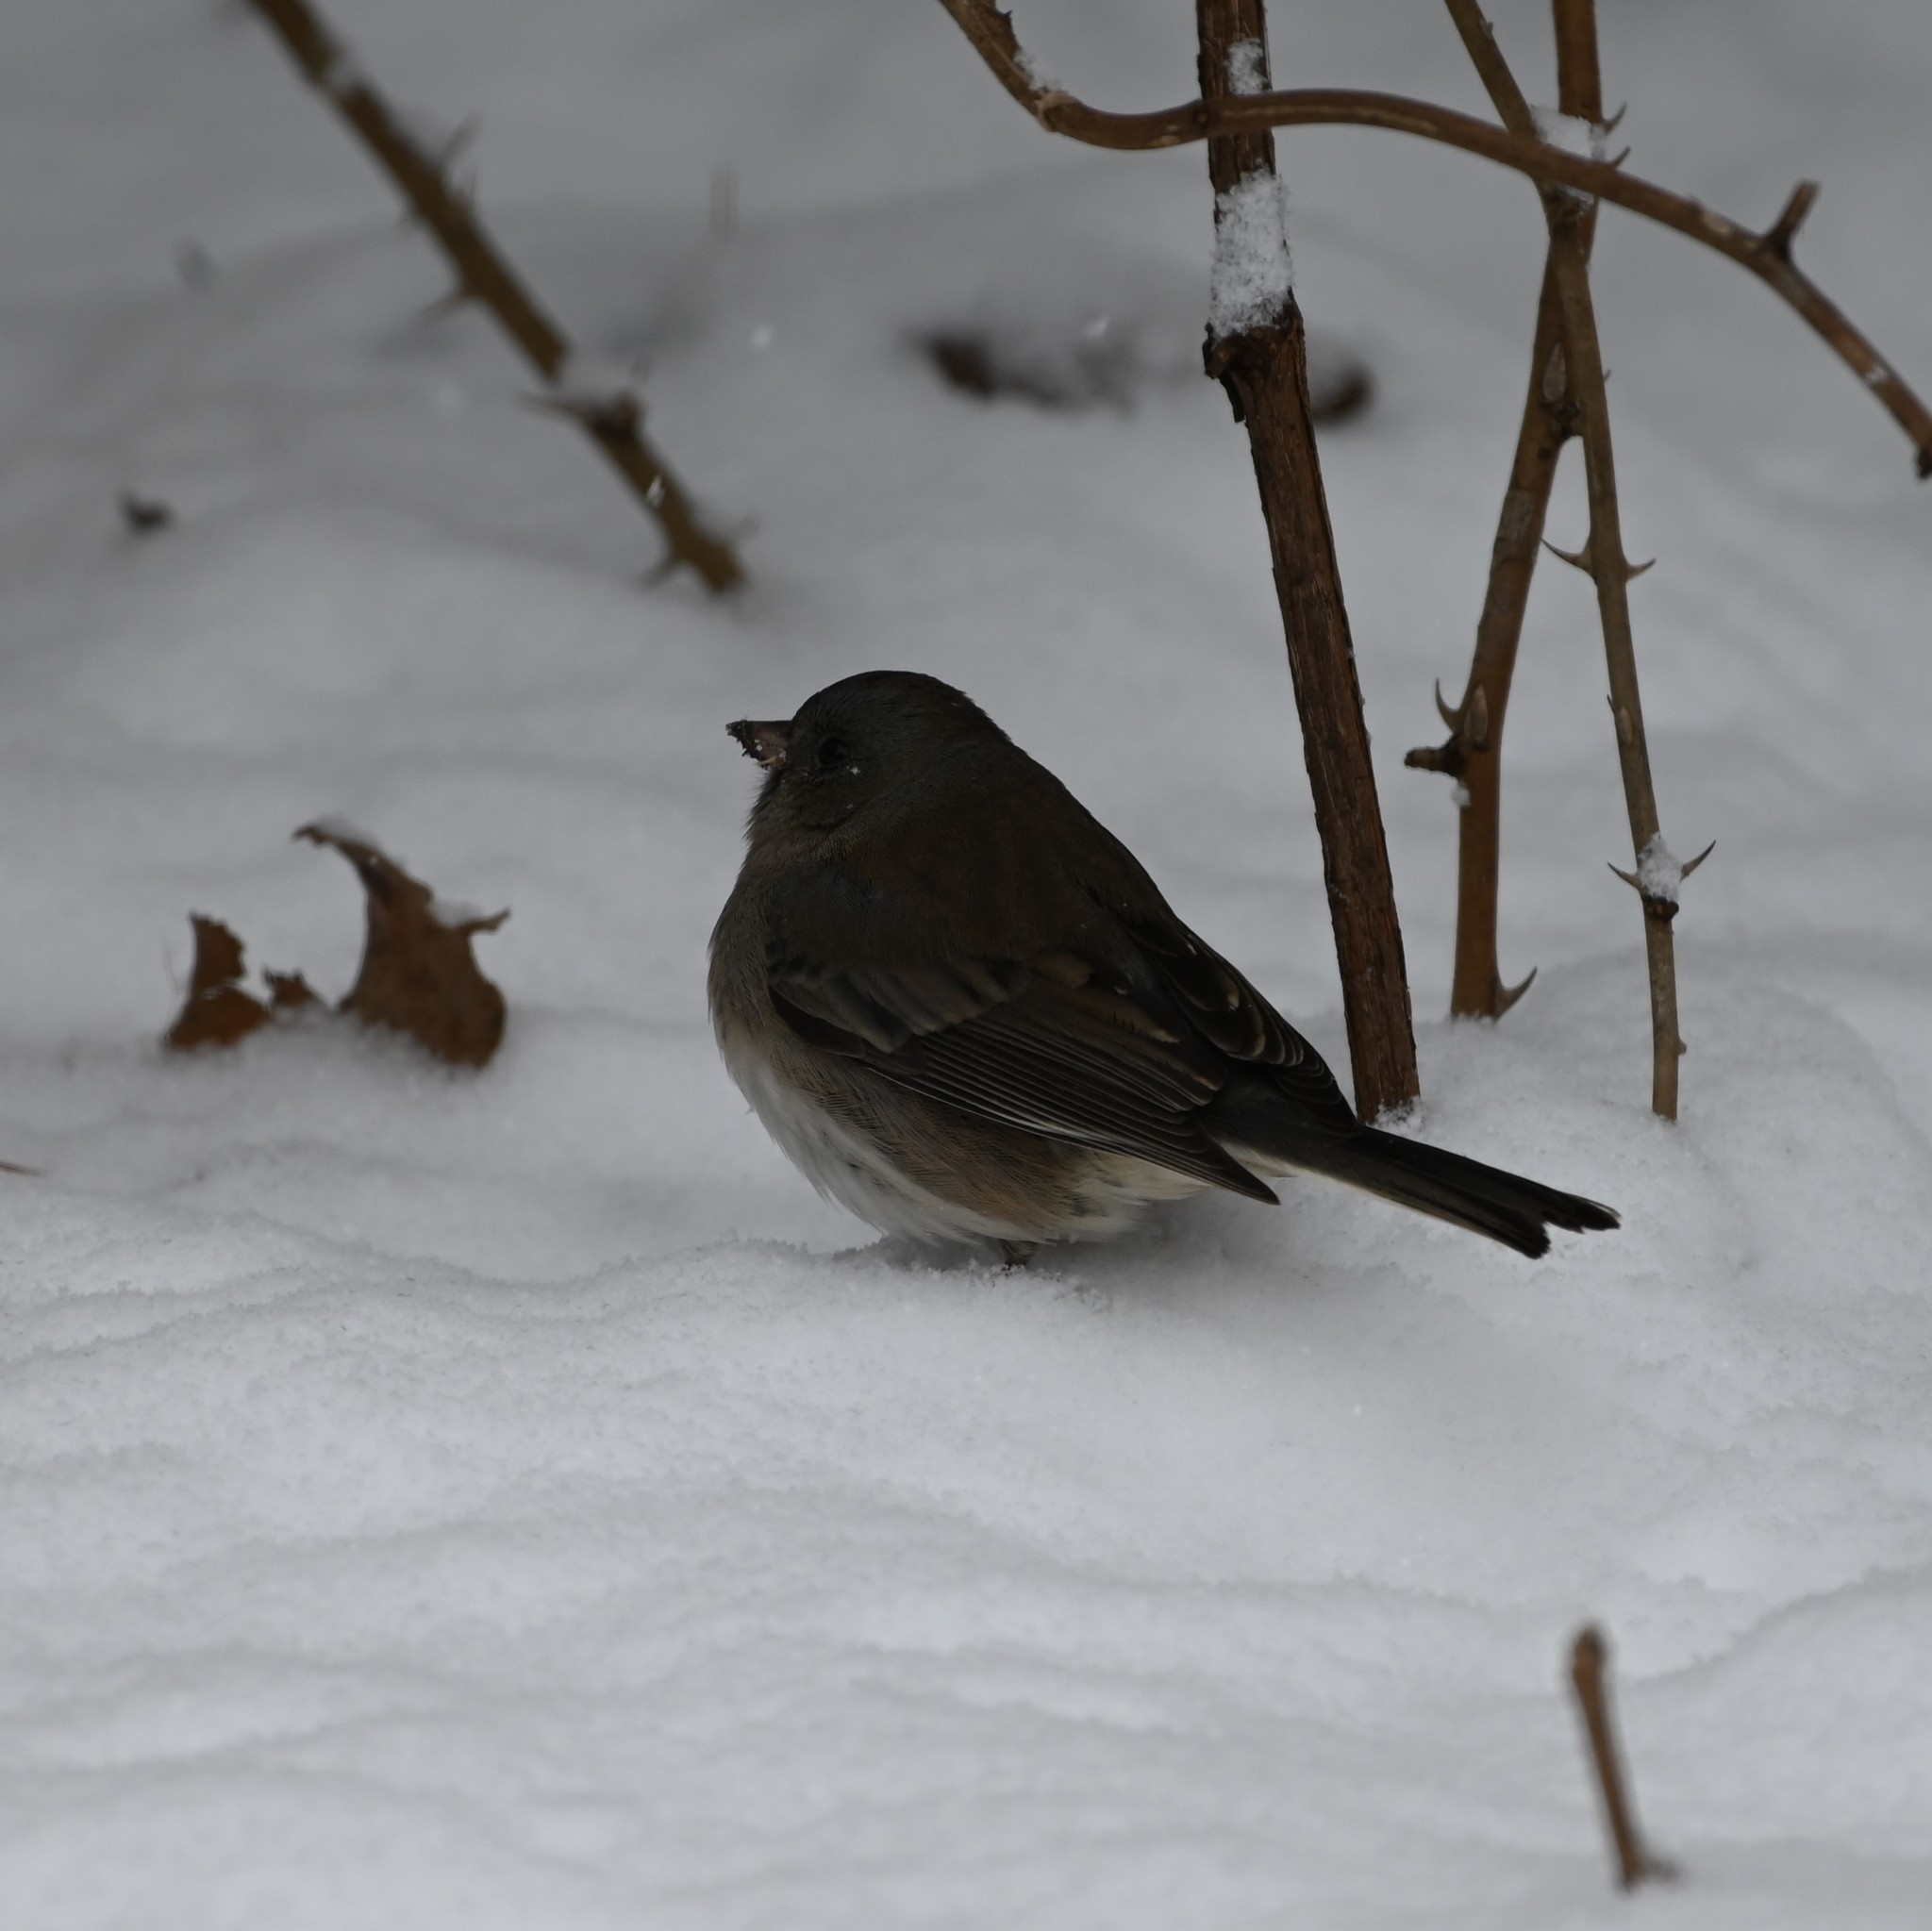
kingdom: Animalia
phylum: Chordata
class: Aves
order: Passeriformes
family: Passerellidae
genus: Junco
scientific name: Junco hyemalis
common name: Dark-eyed junco
